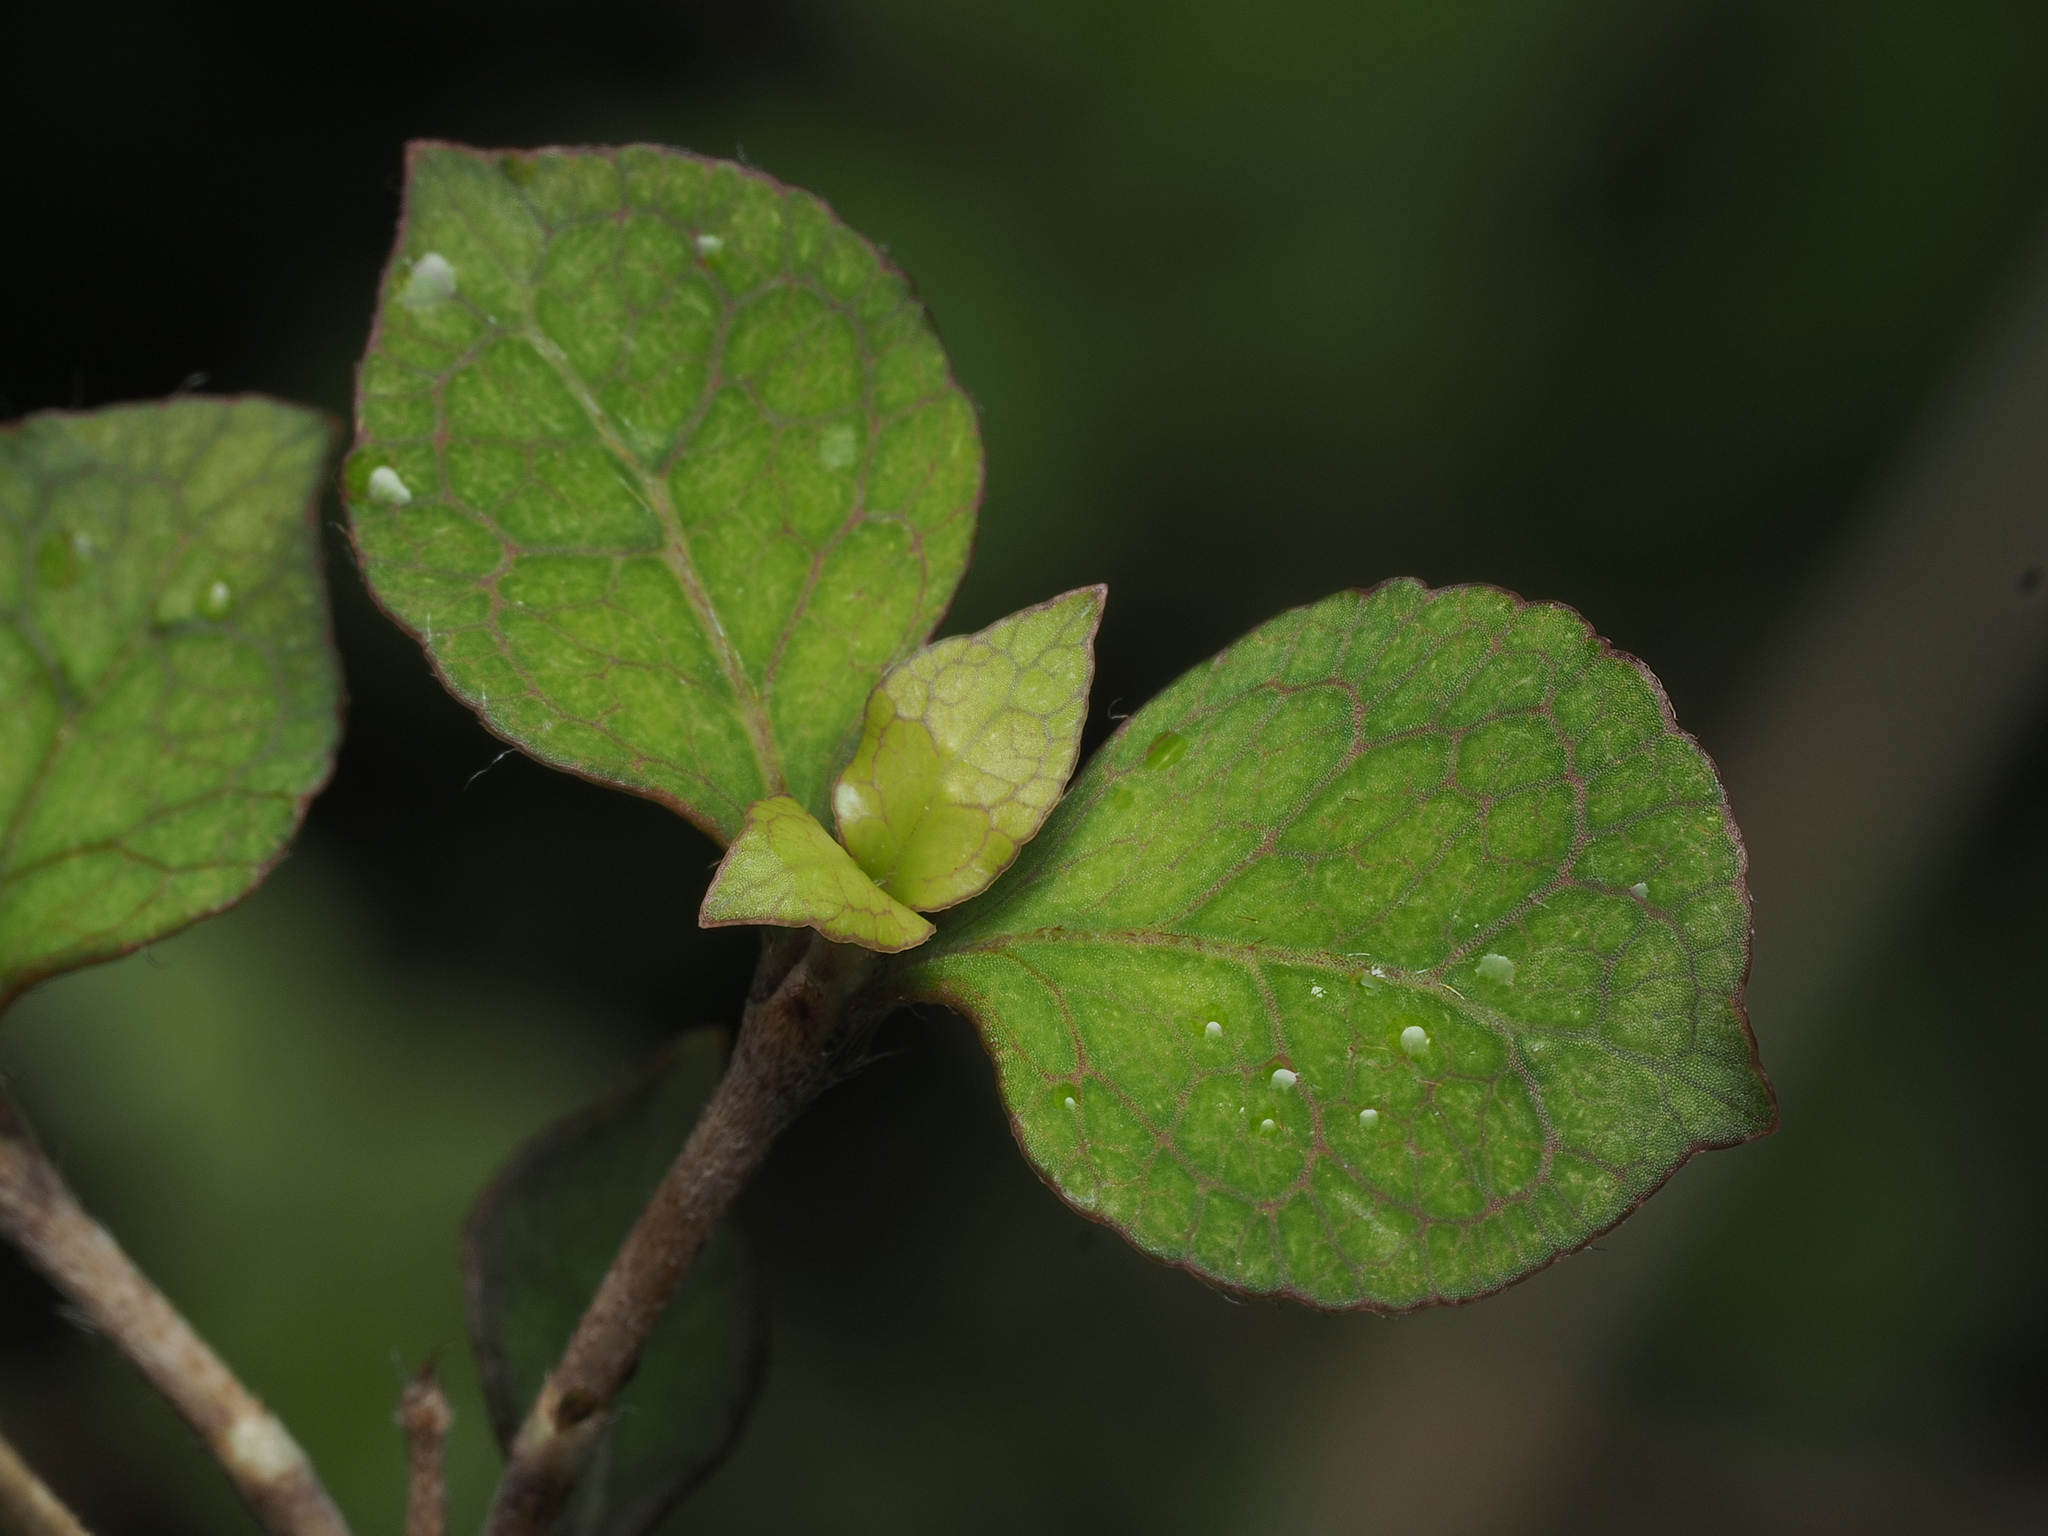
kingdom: Plantae
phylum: Tracheophyta
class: Magnoliopsida
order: Gentianales
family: Rubiaceae
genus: Coprosma
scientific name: Coprosma areolata
